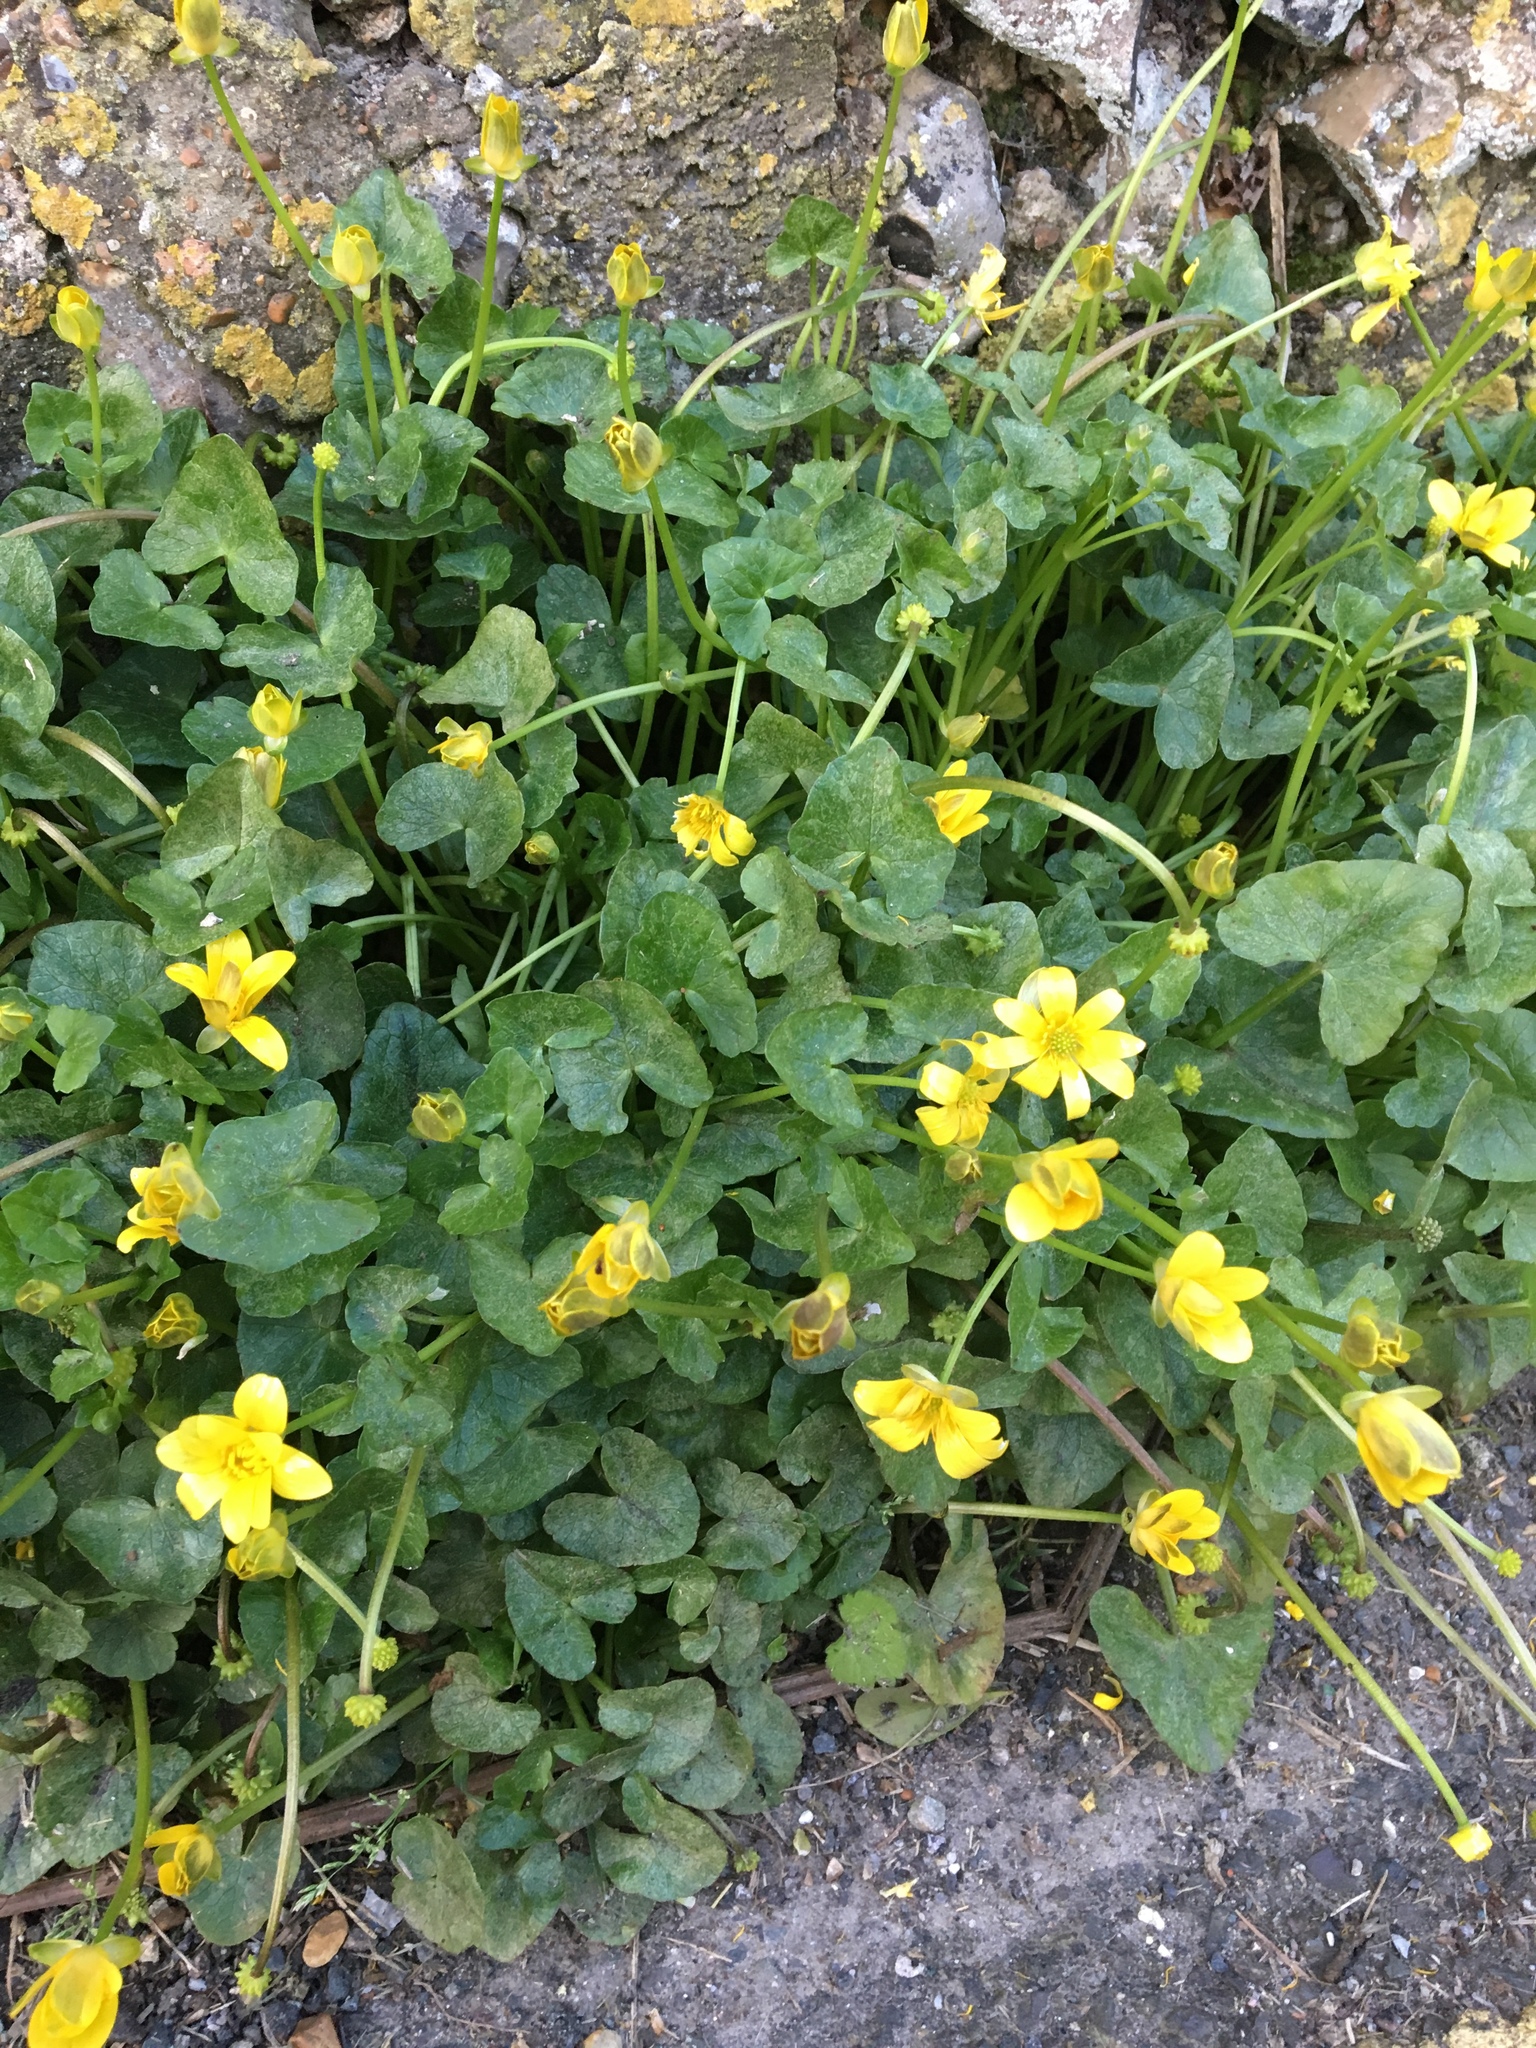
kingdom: Plantae
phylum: Tracheophyta
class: Magnoliopsida
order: Ranunculales
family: Ranunculaceae
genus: Ficaria
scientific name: Ficaria verna
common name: Lesser celandine
